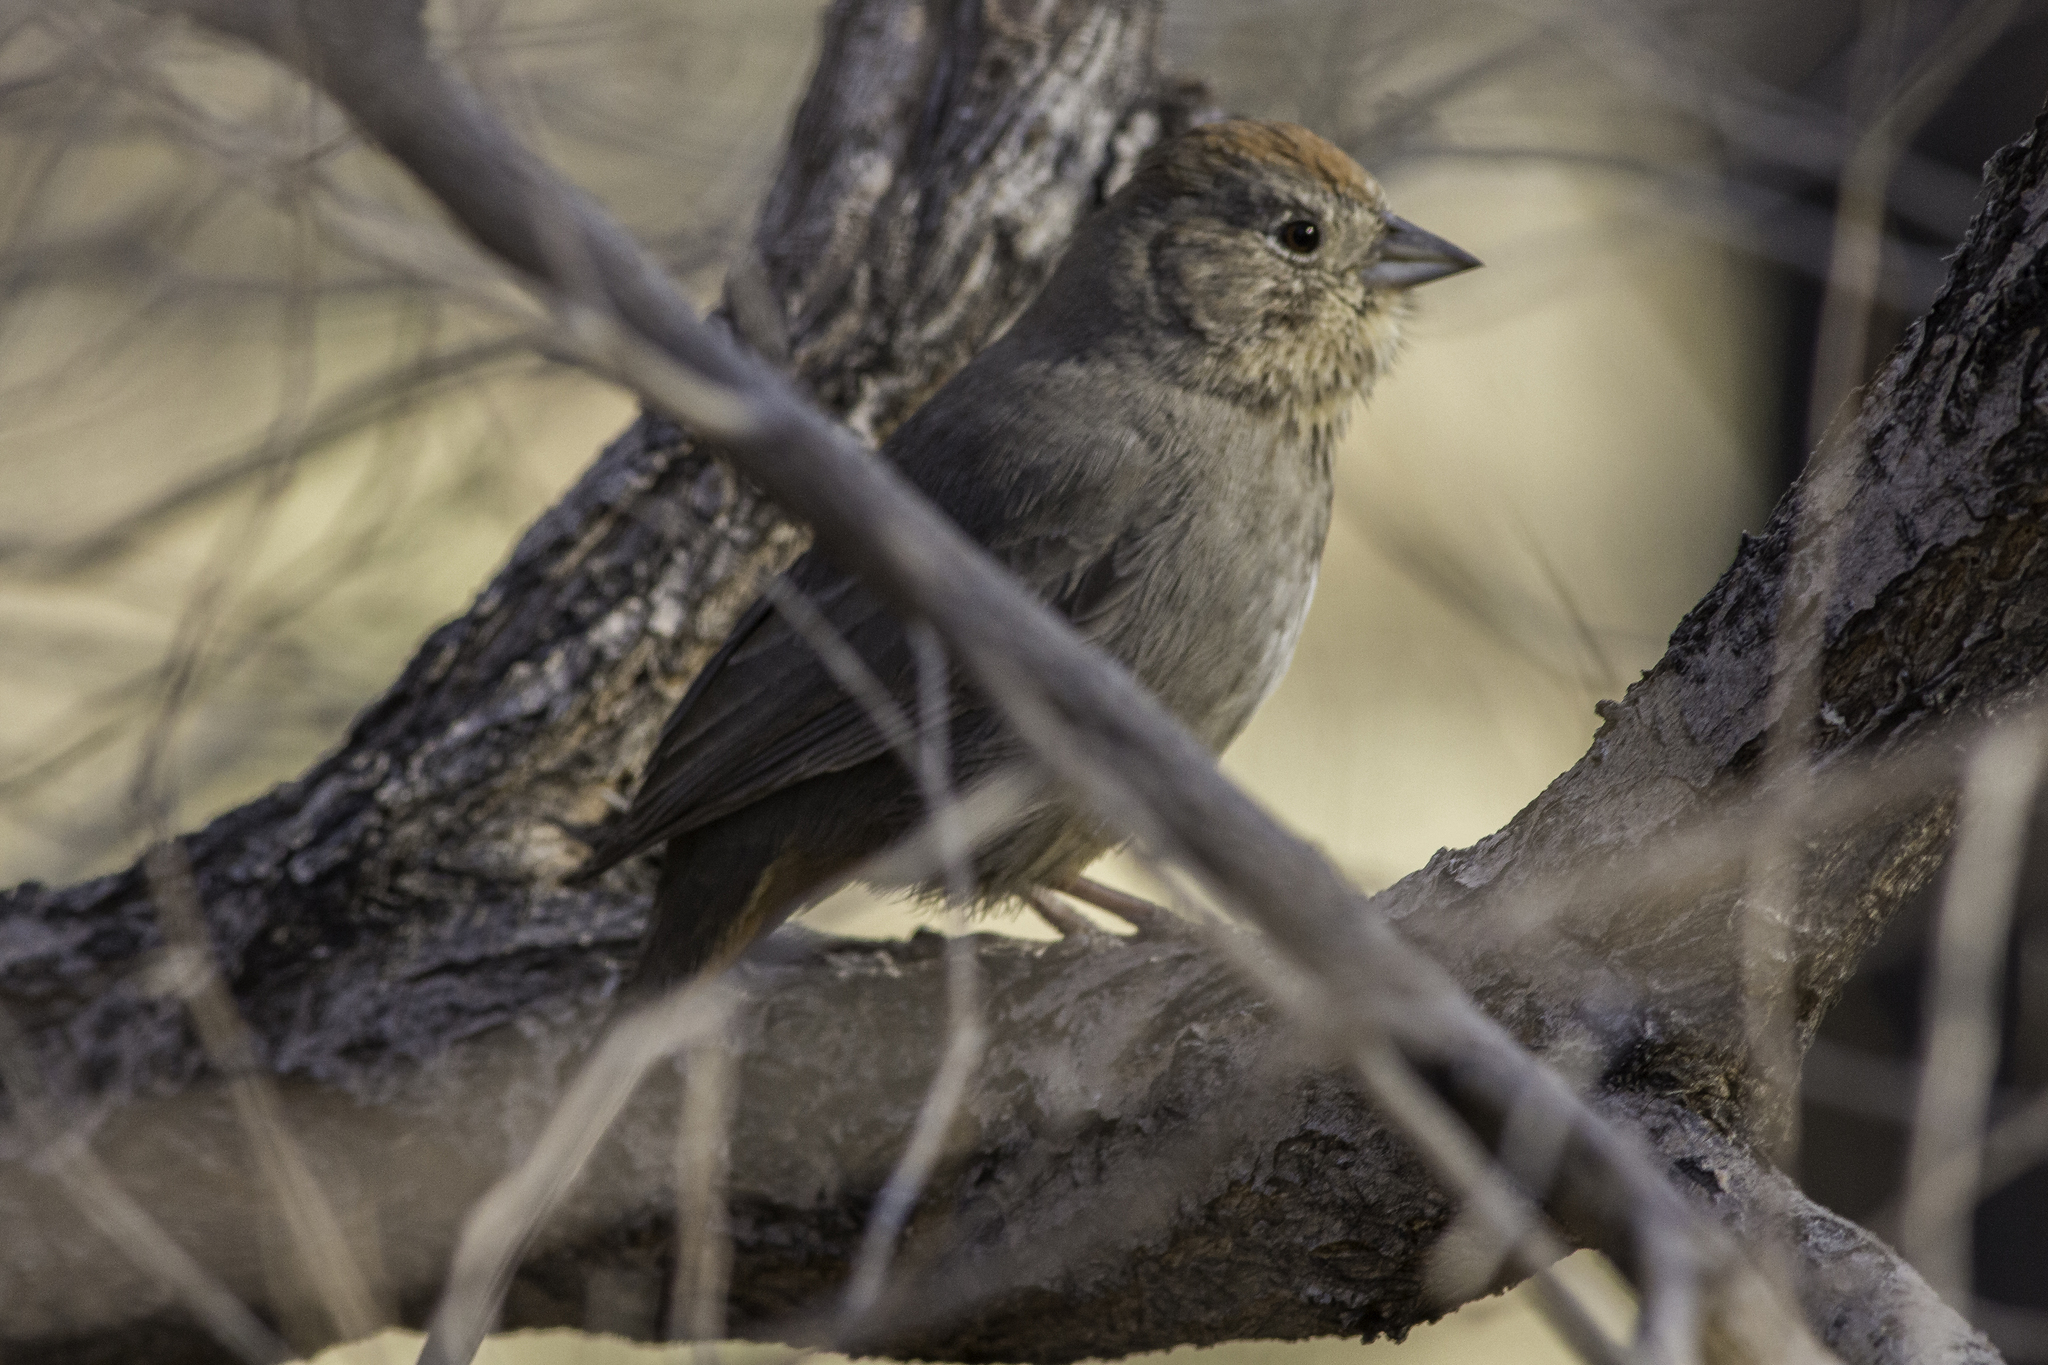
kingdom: Animalia
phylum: Chordata
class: Aves
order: Passeriformes
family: Passerellidae
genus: Melozone
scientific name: Melozone fusca
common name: Canyon towhee
